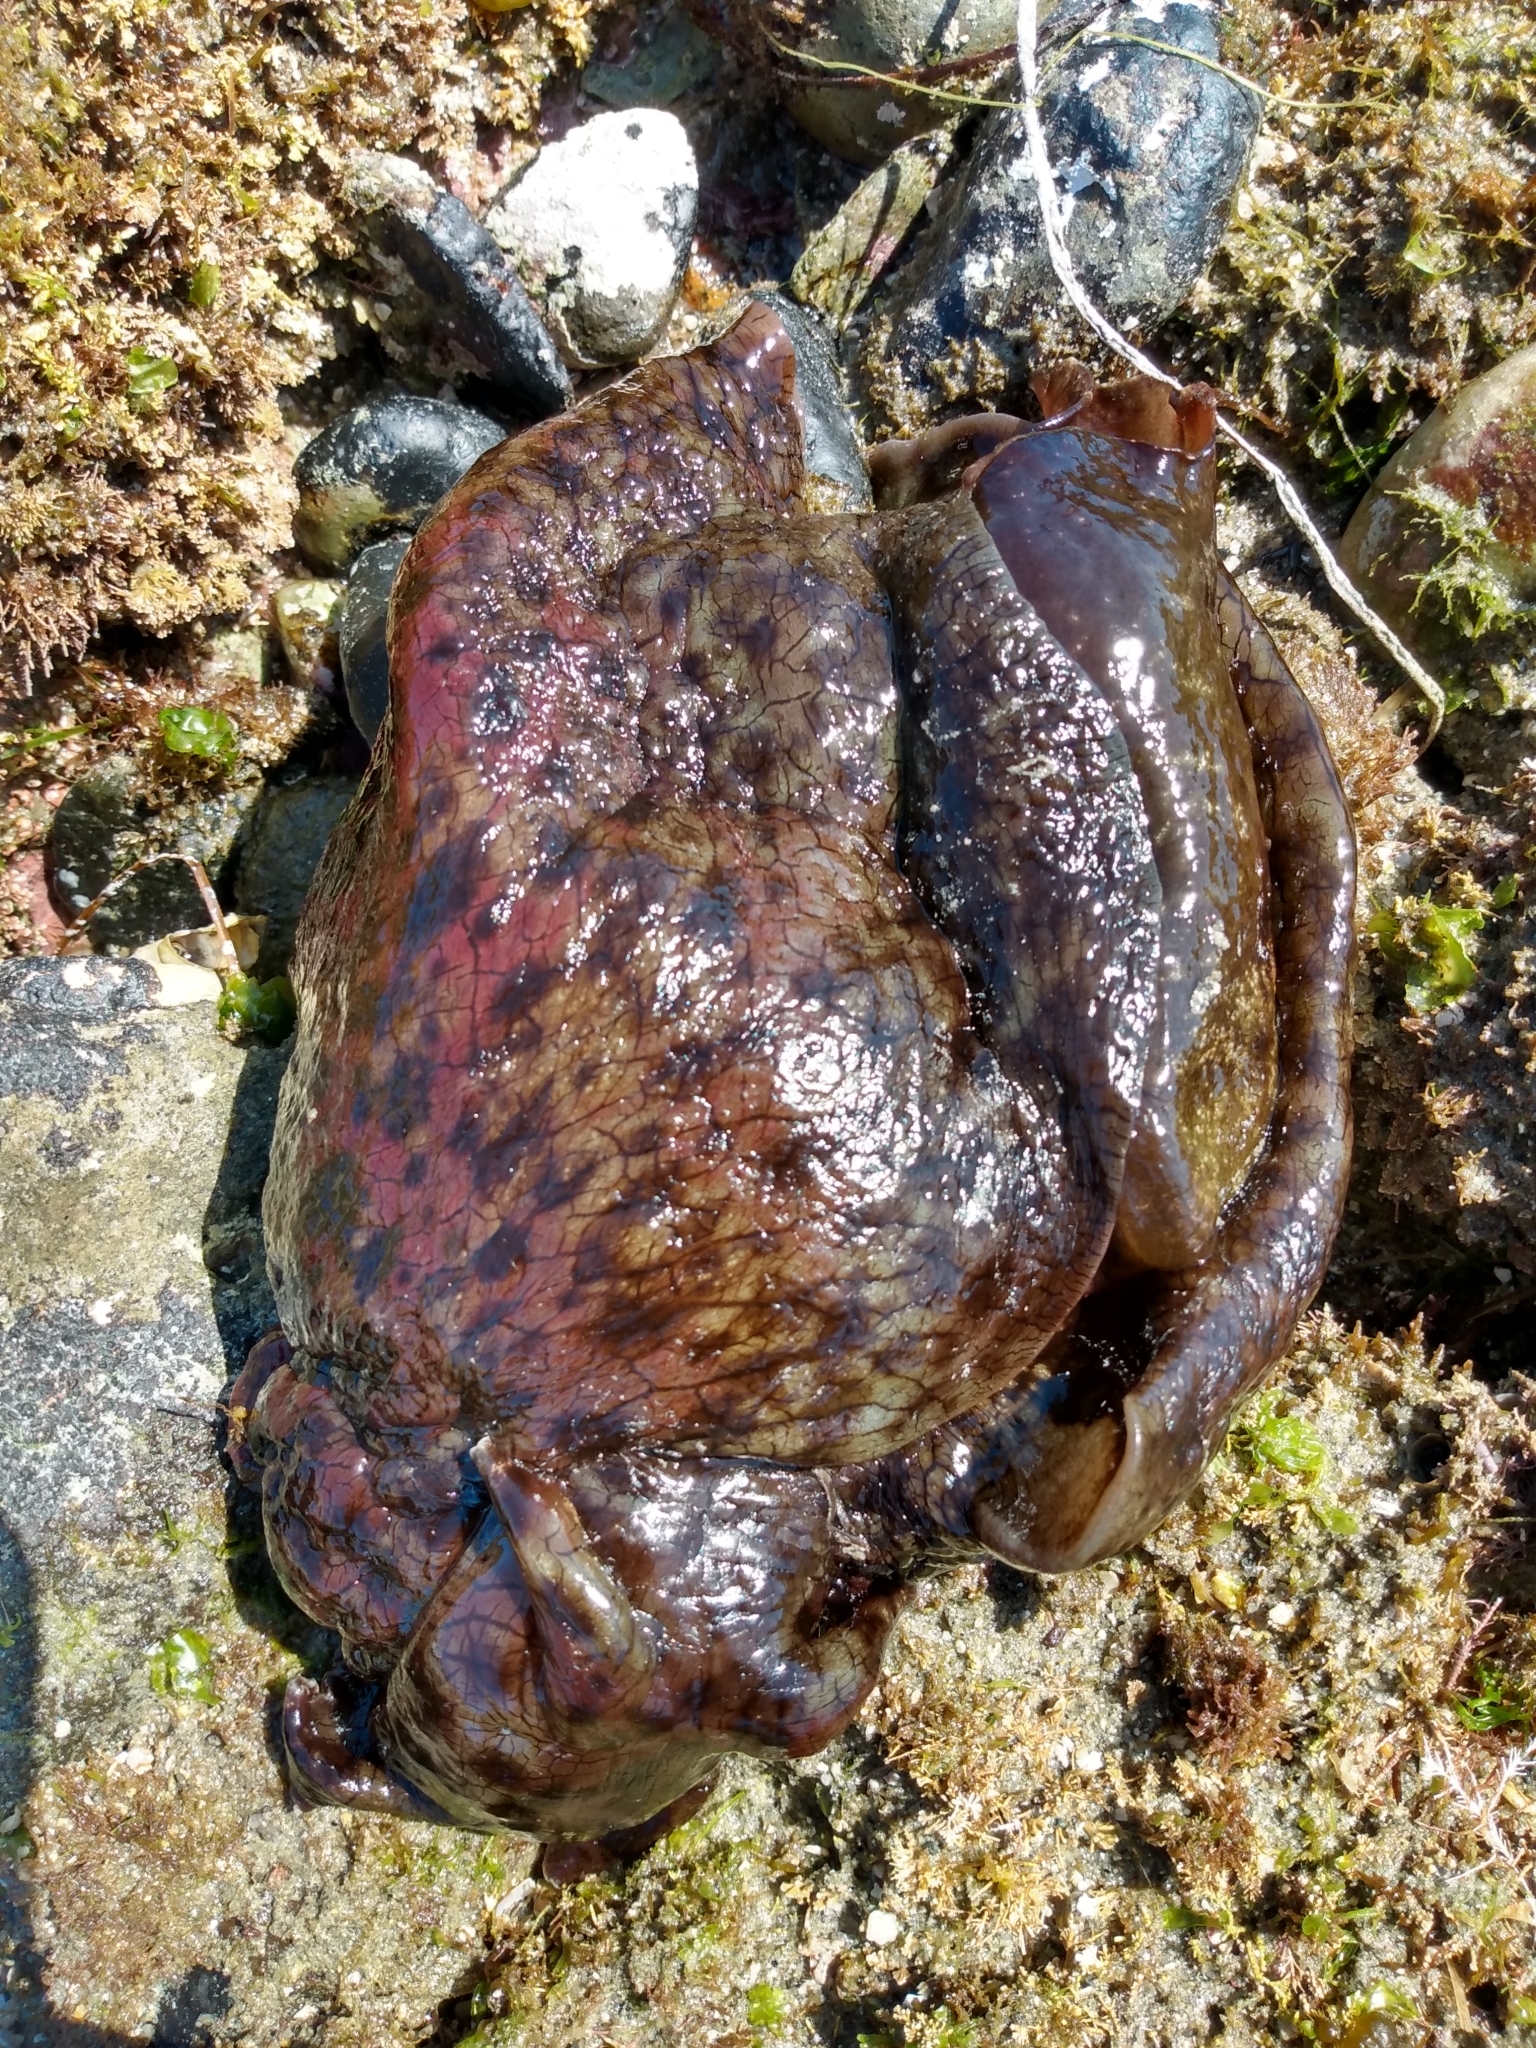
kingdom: Animalia
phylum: Mollusca
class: Gastropoda
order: Aplysiida
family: Aplysiidae
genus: Aplysia
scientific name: Aplysia californica
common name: California seahare
